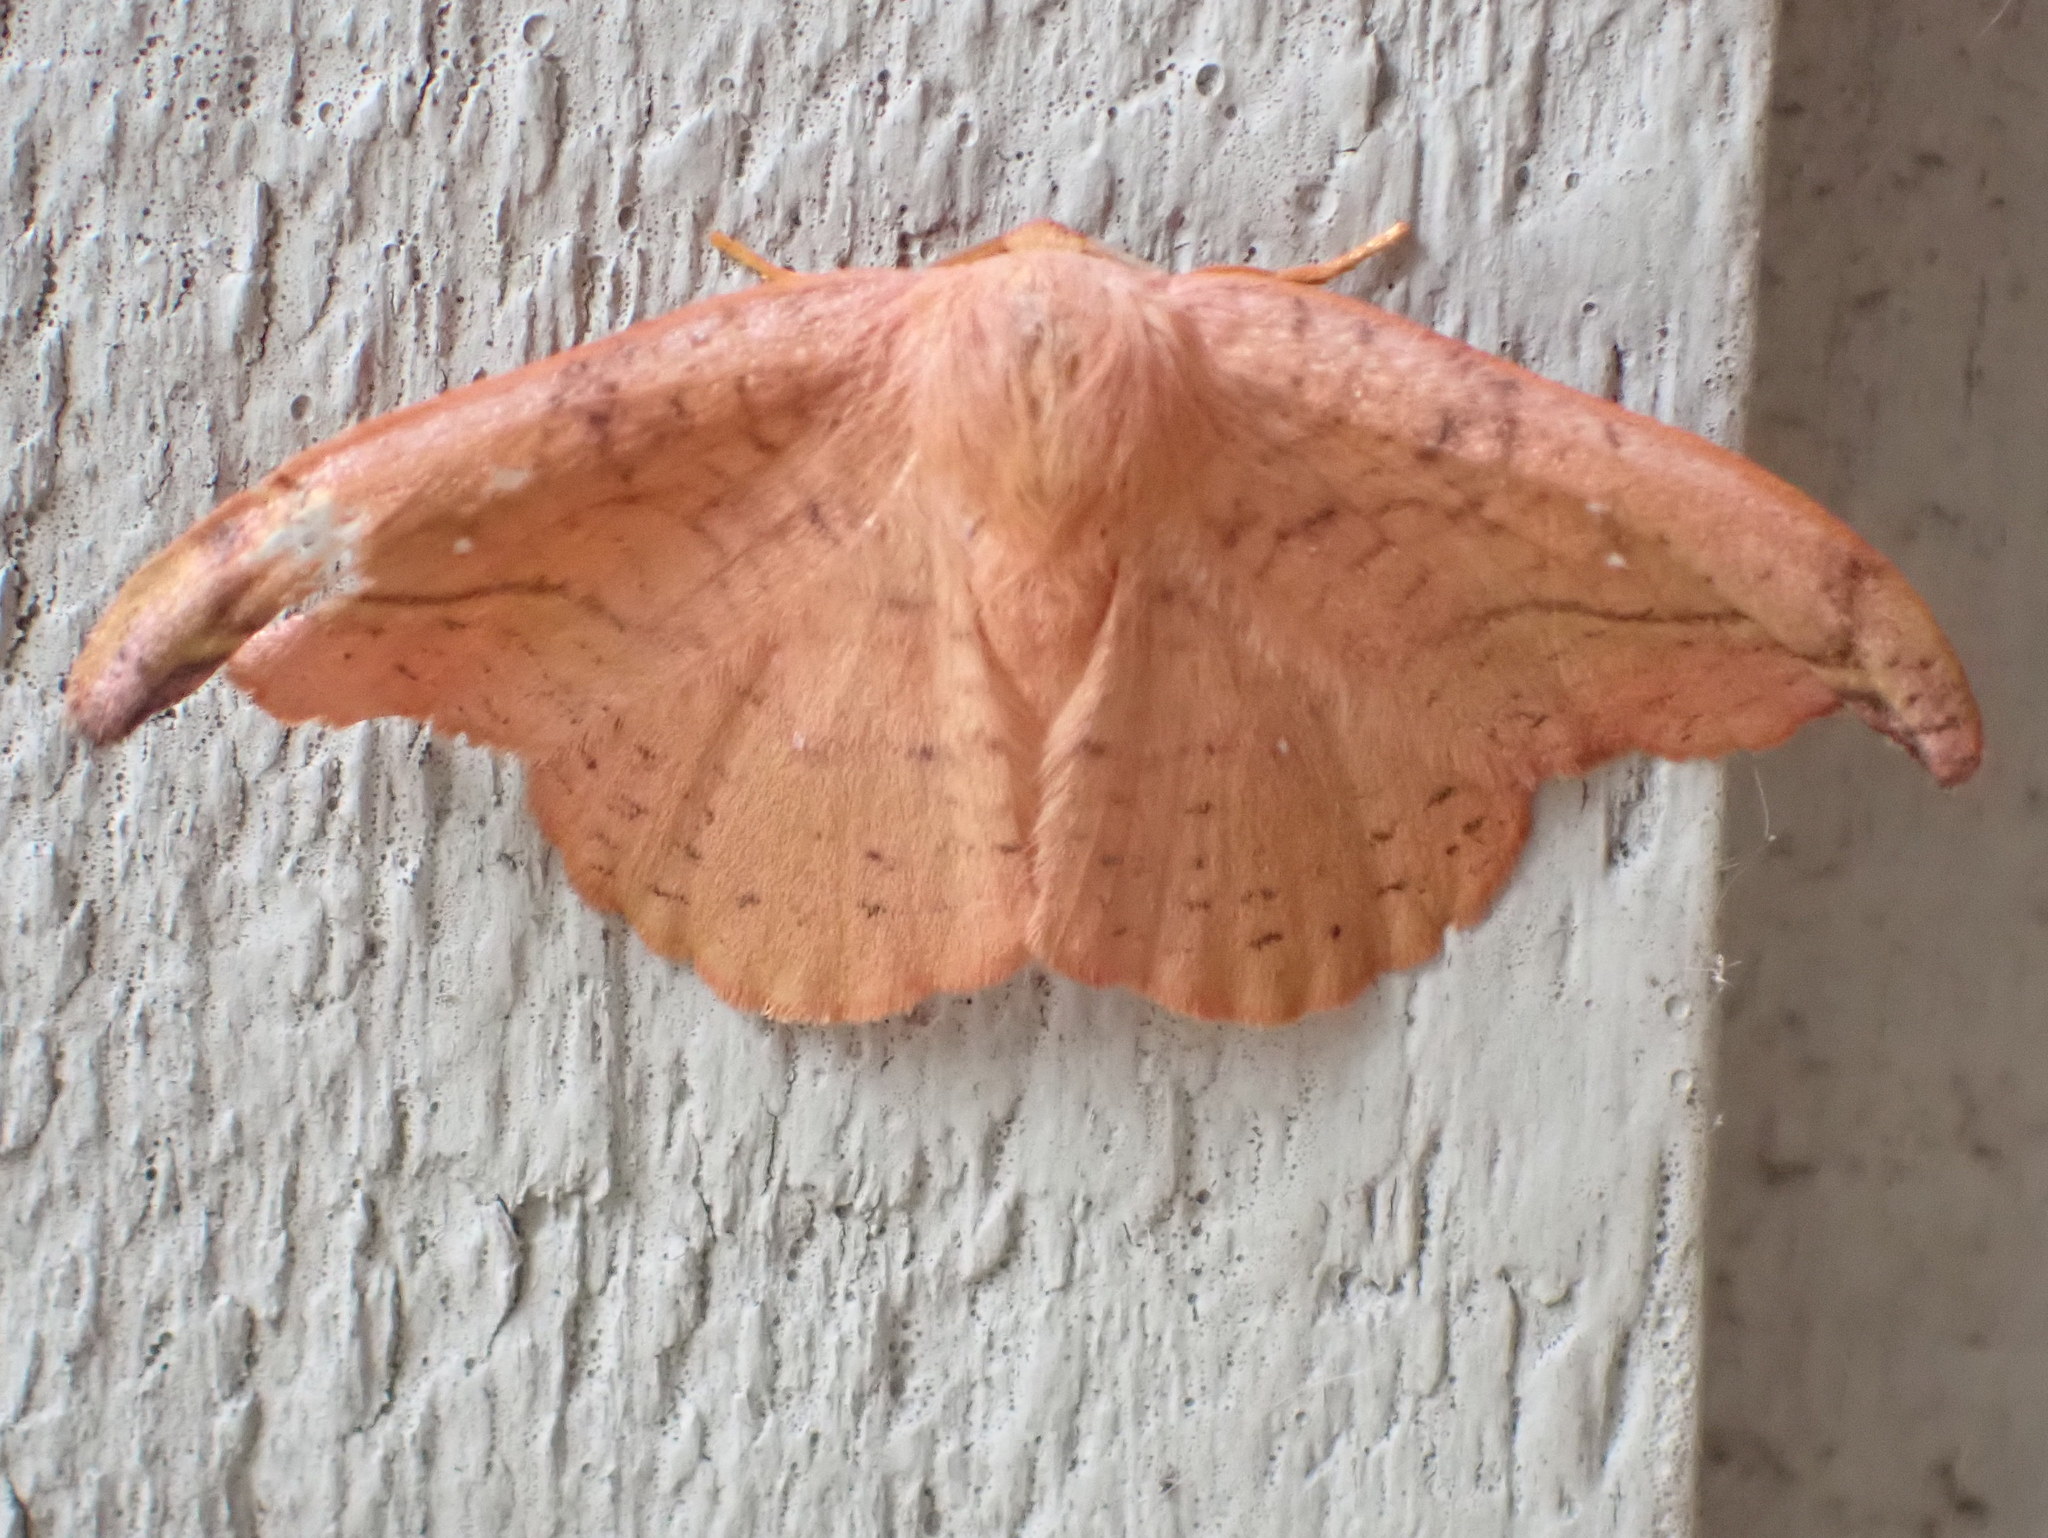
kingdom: Animalia
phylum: Arthropoda
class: Insecta
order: Lepidoptera
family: Drepanidae
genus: Oreta
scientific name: Oreta rosea
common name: Rose hooktip
